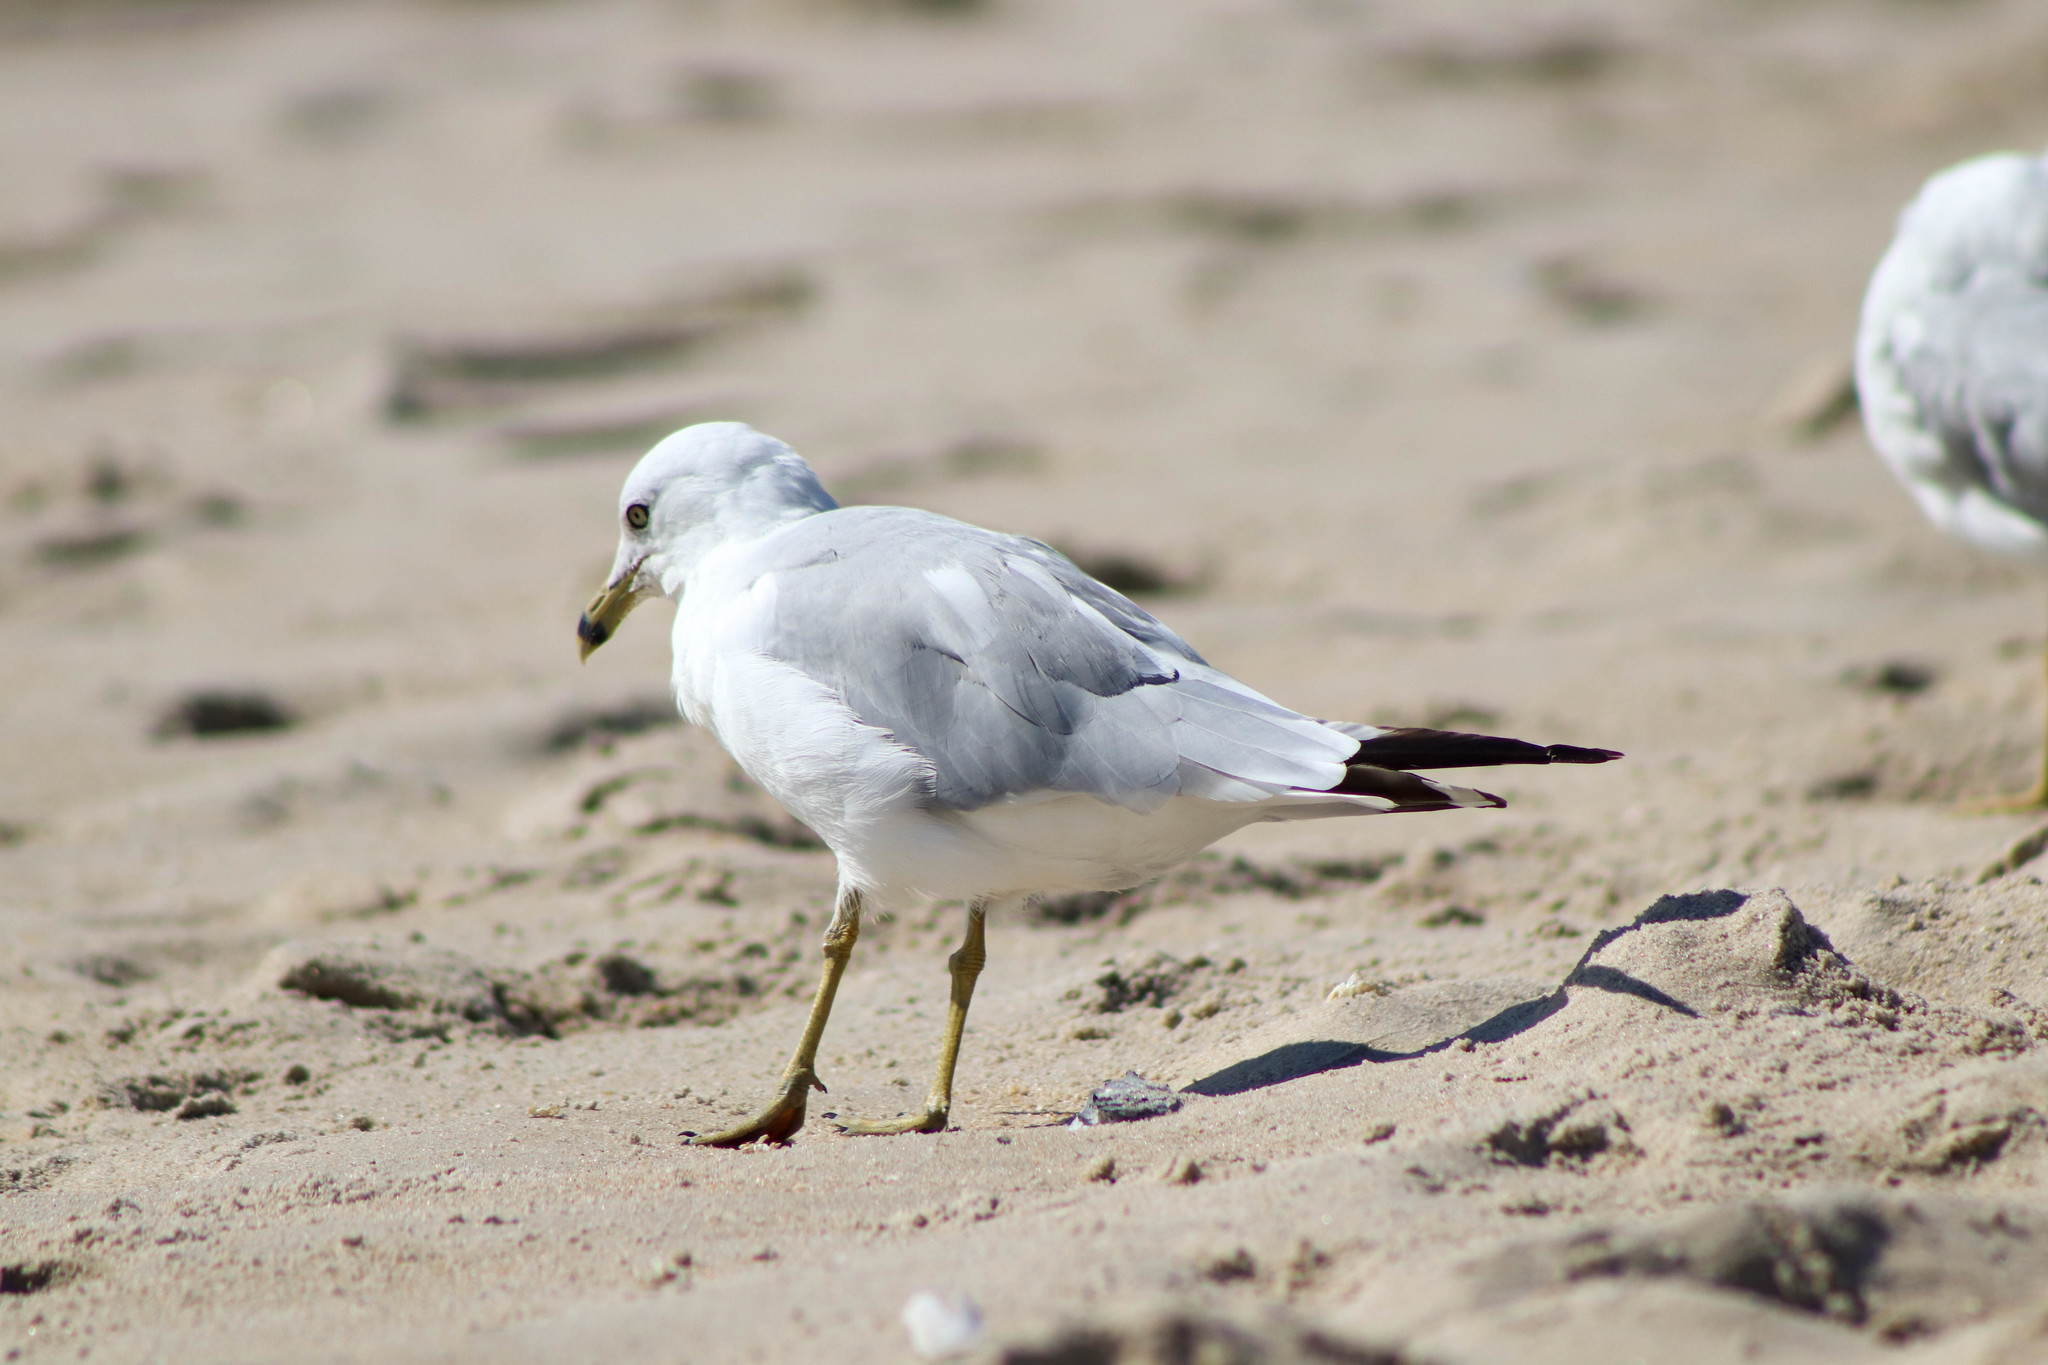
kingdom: Animalia
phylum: Chordata
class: Aves
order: Charadriiformes
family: Laridae
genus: Larus
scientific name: Larus delawarensis
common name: Ring-billed gull
